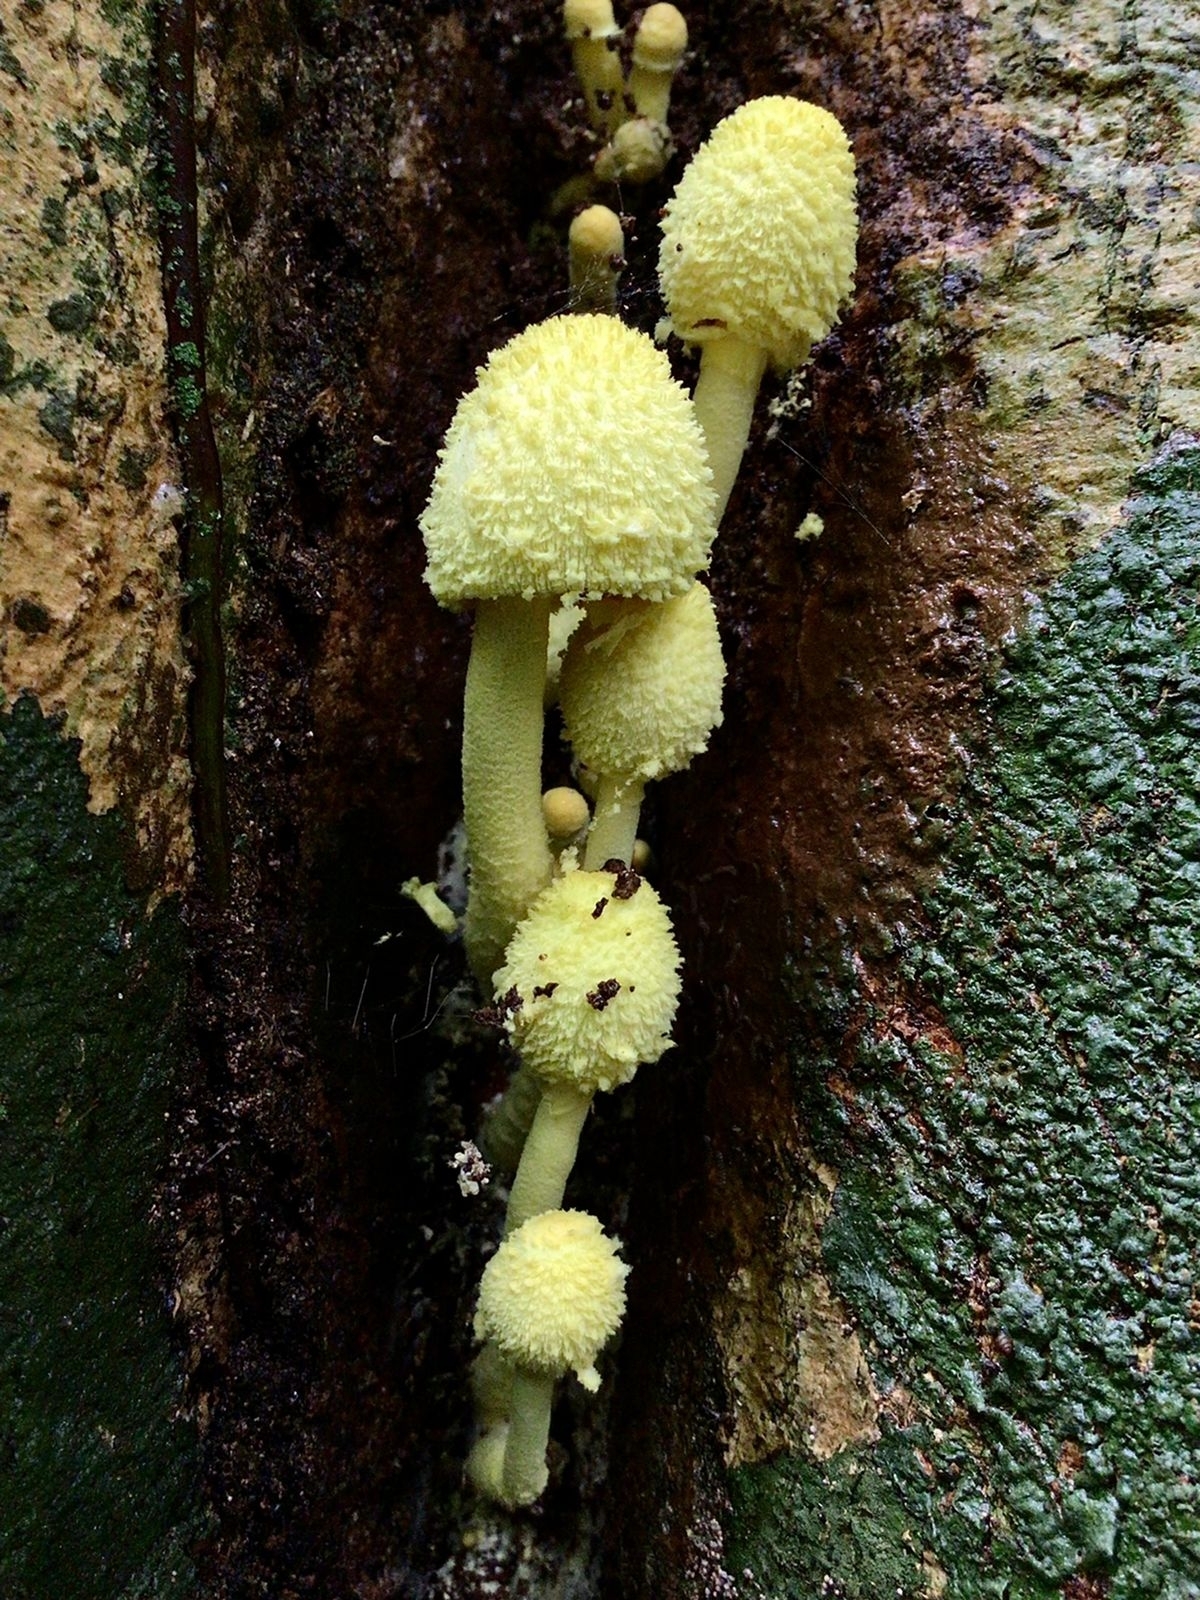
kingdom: Fungi
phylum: Basidiomycota
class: Agaricomycetes
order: Agaricales
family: Agaricaceae
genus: Leucocoprinus
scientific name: Leucocoprinus birnbaumii
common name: Plantpot dapperling
